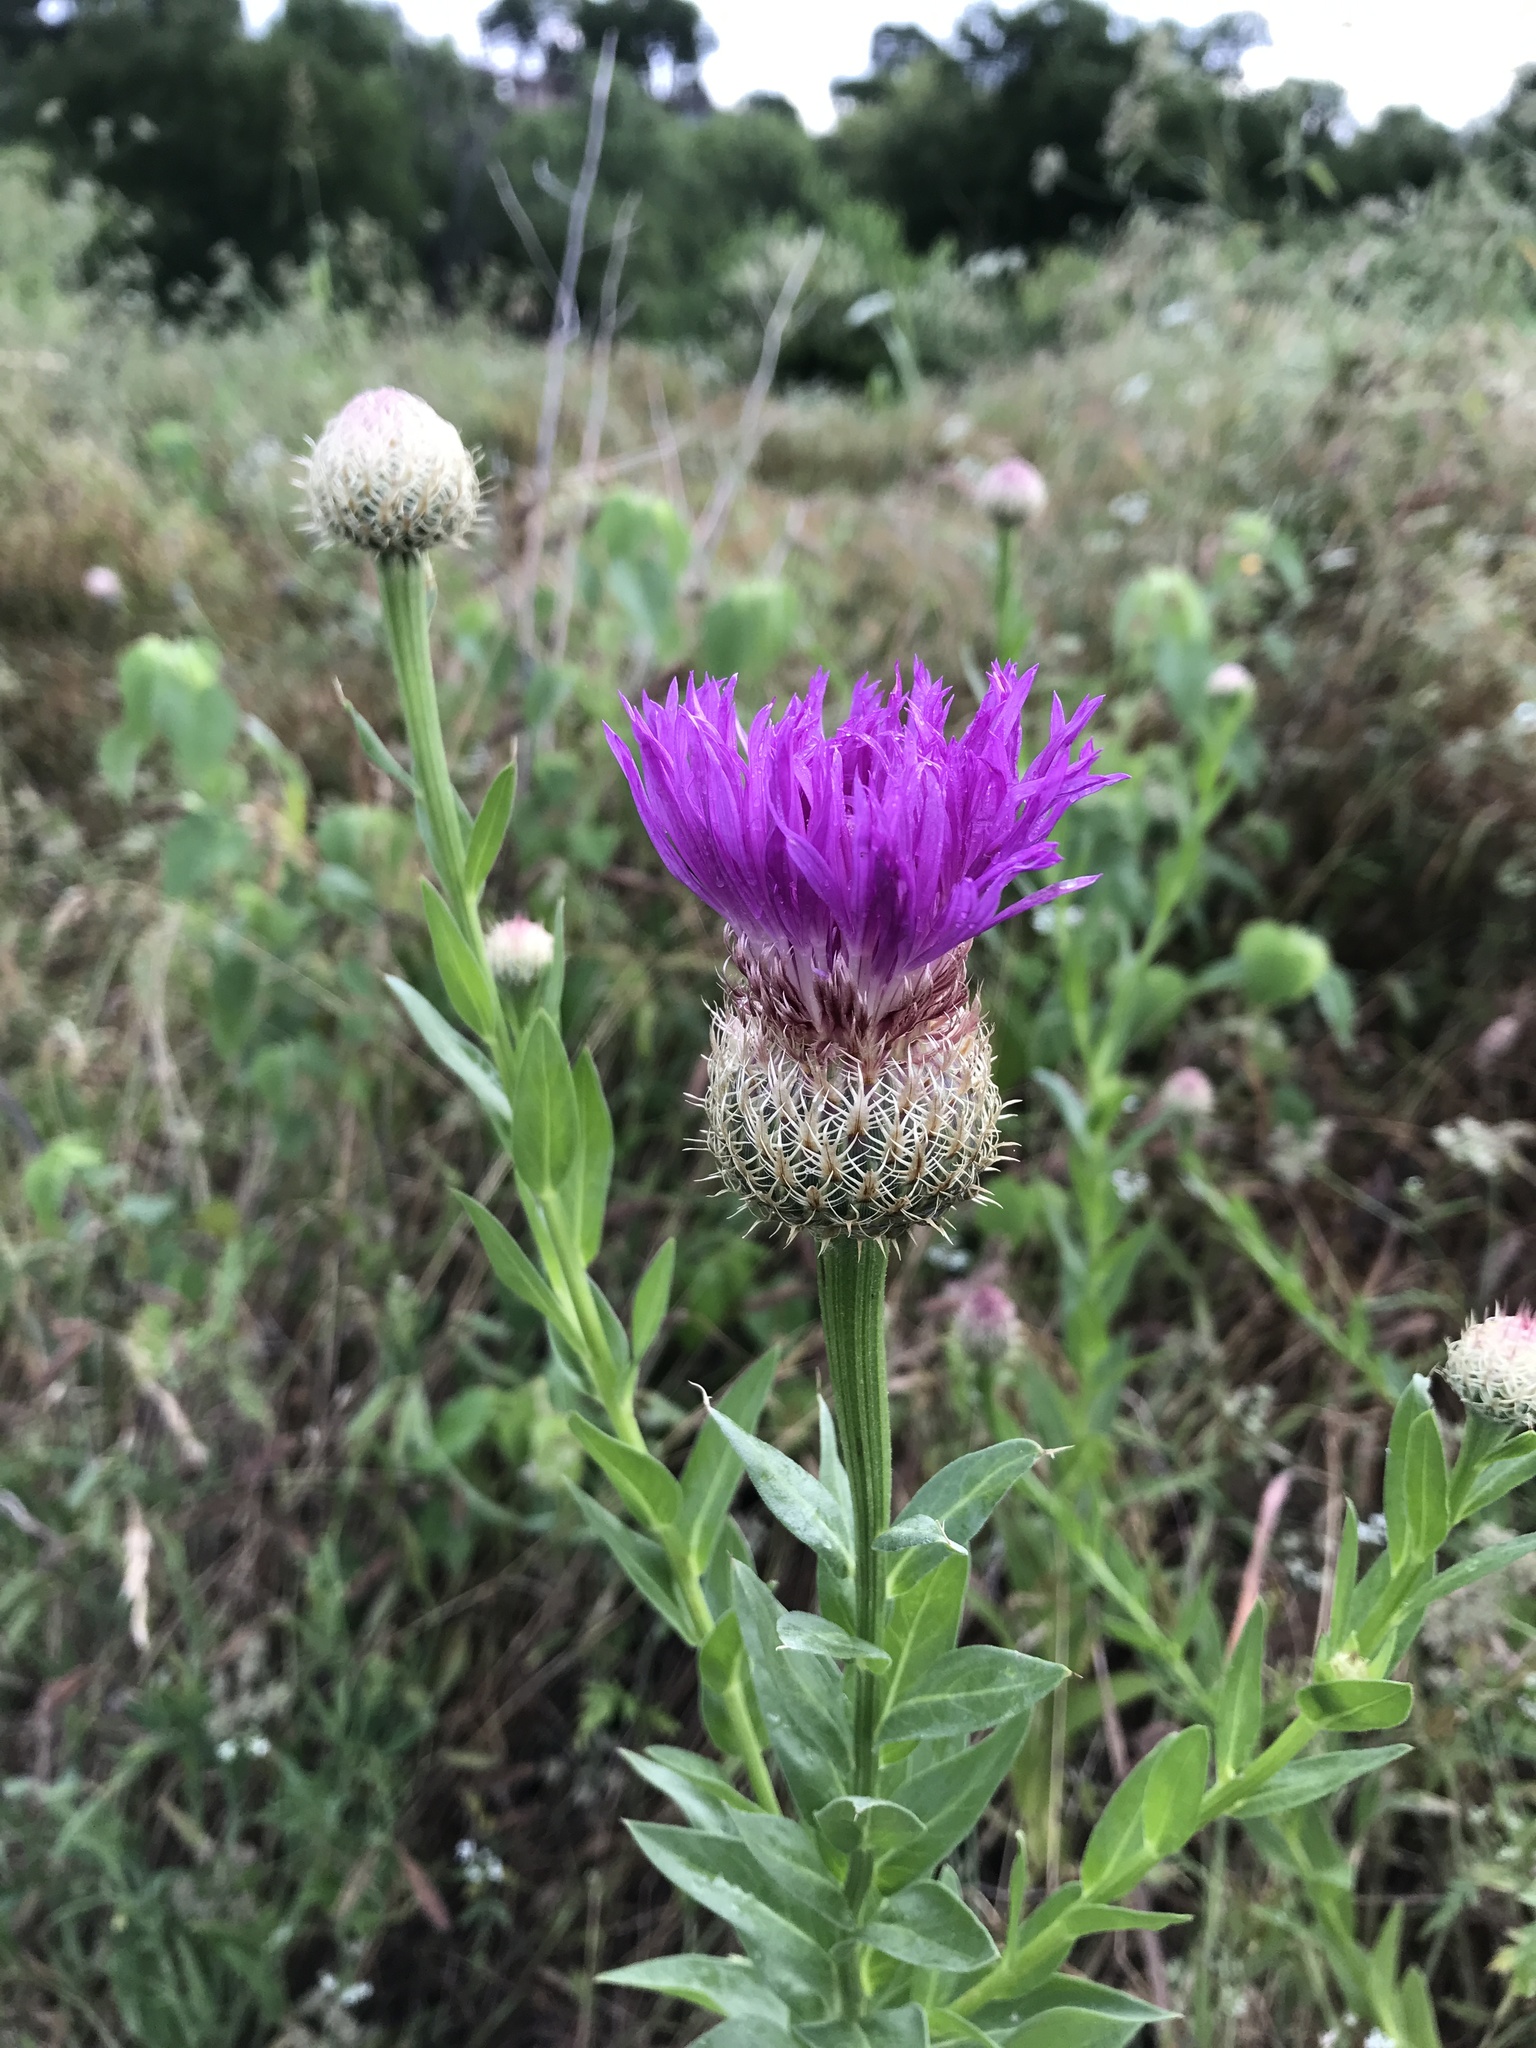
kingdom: Plantae
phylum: Tracheophyta
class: Magnoliopsida
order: Asterales
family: Asteraceae
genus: Plectocephalus
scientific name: Plectocephalus americanus
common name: American basket-flower
